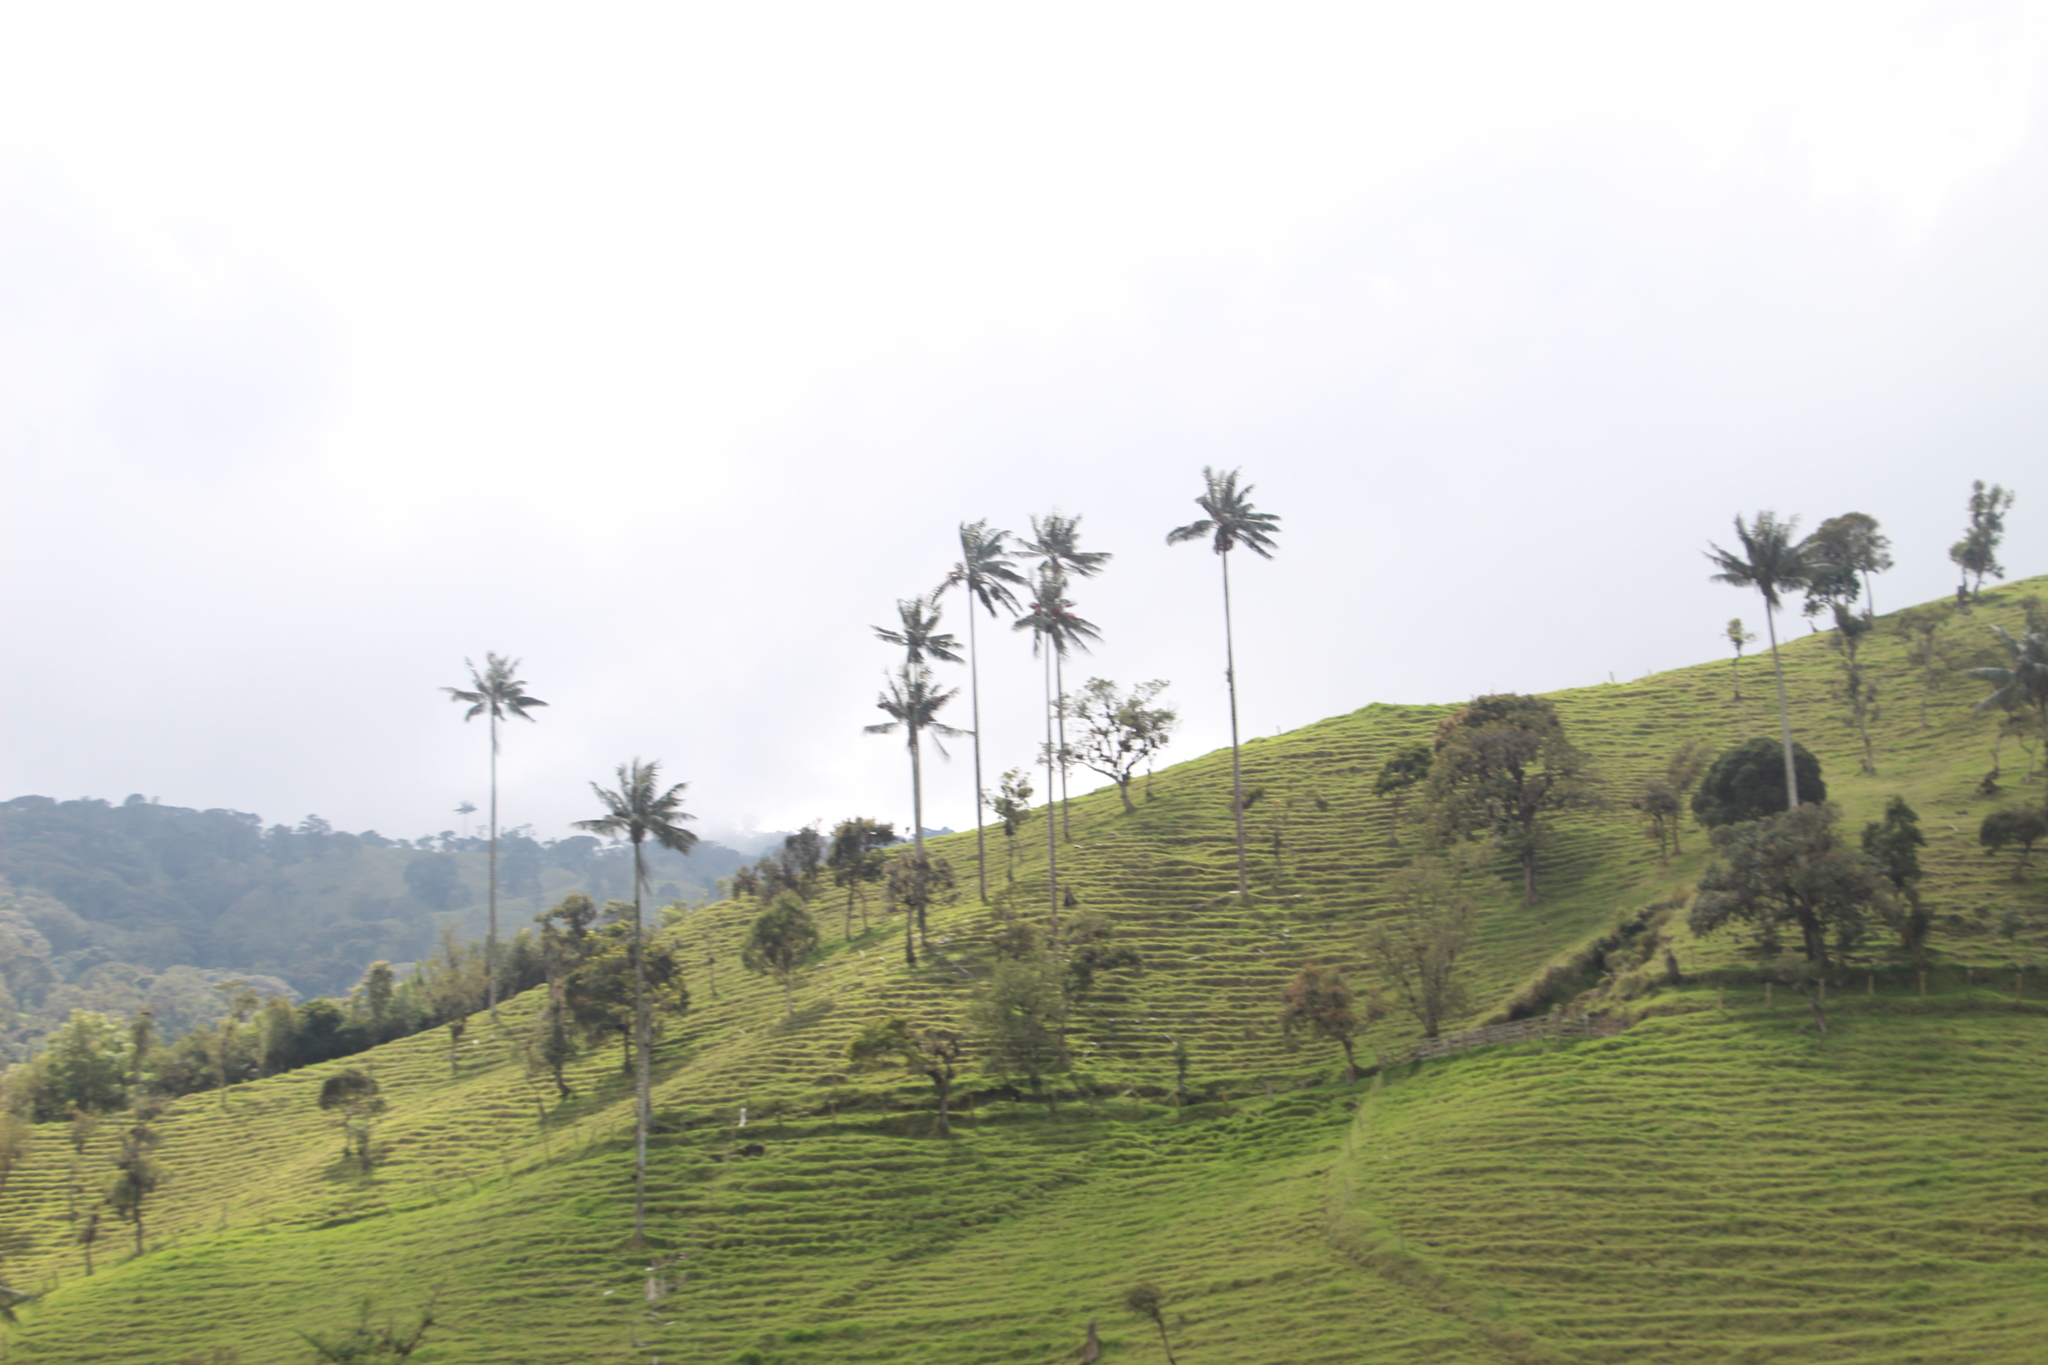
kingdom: Plantae
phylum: Tracheophyta
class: Liliopsida
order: Arecales
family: Arecaceae
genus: Ceroxylon
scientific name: Ceroxylon quindiuense
